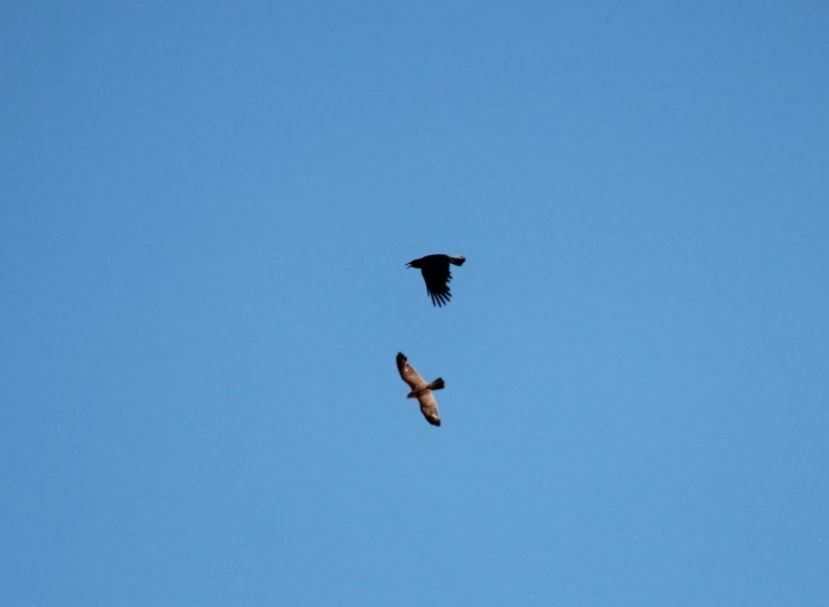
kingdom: Animalia
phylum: Chordata
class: Aves
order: Passeriformes
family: Corvidae
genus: Corvus
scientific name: Corvus capensis
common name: Cape crow
